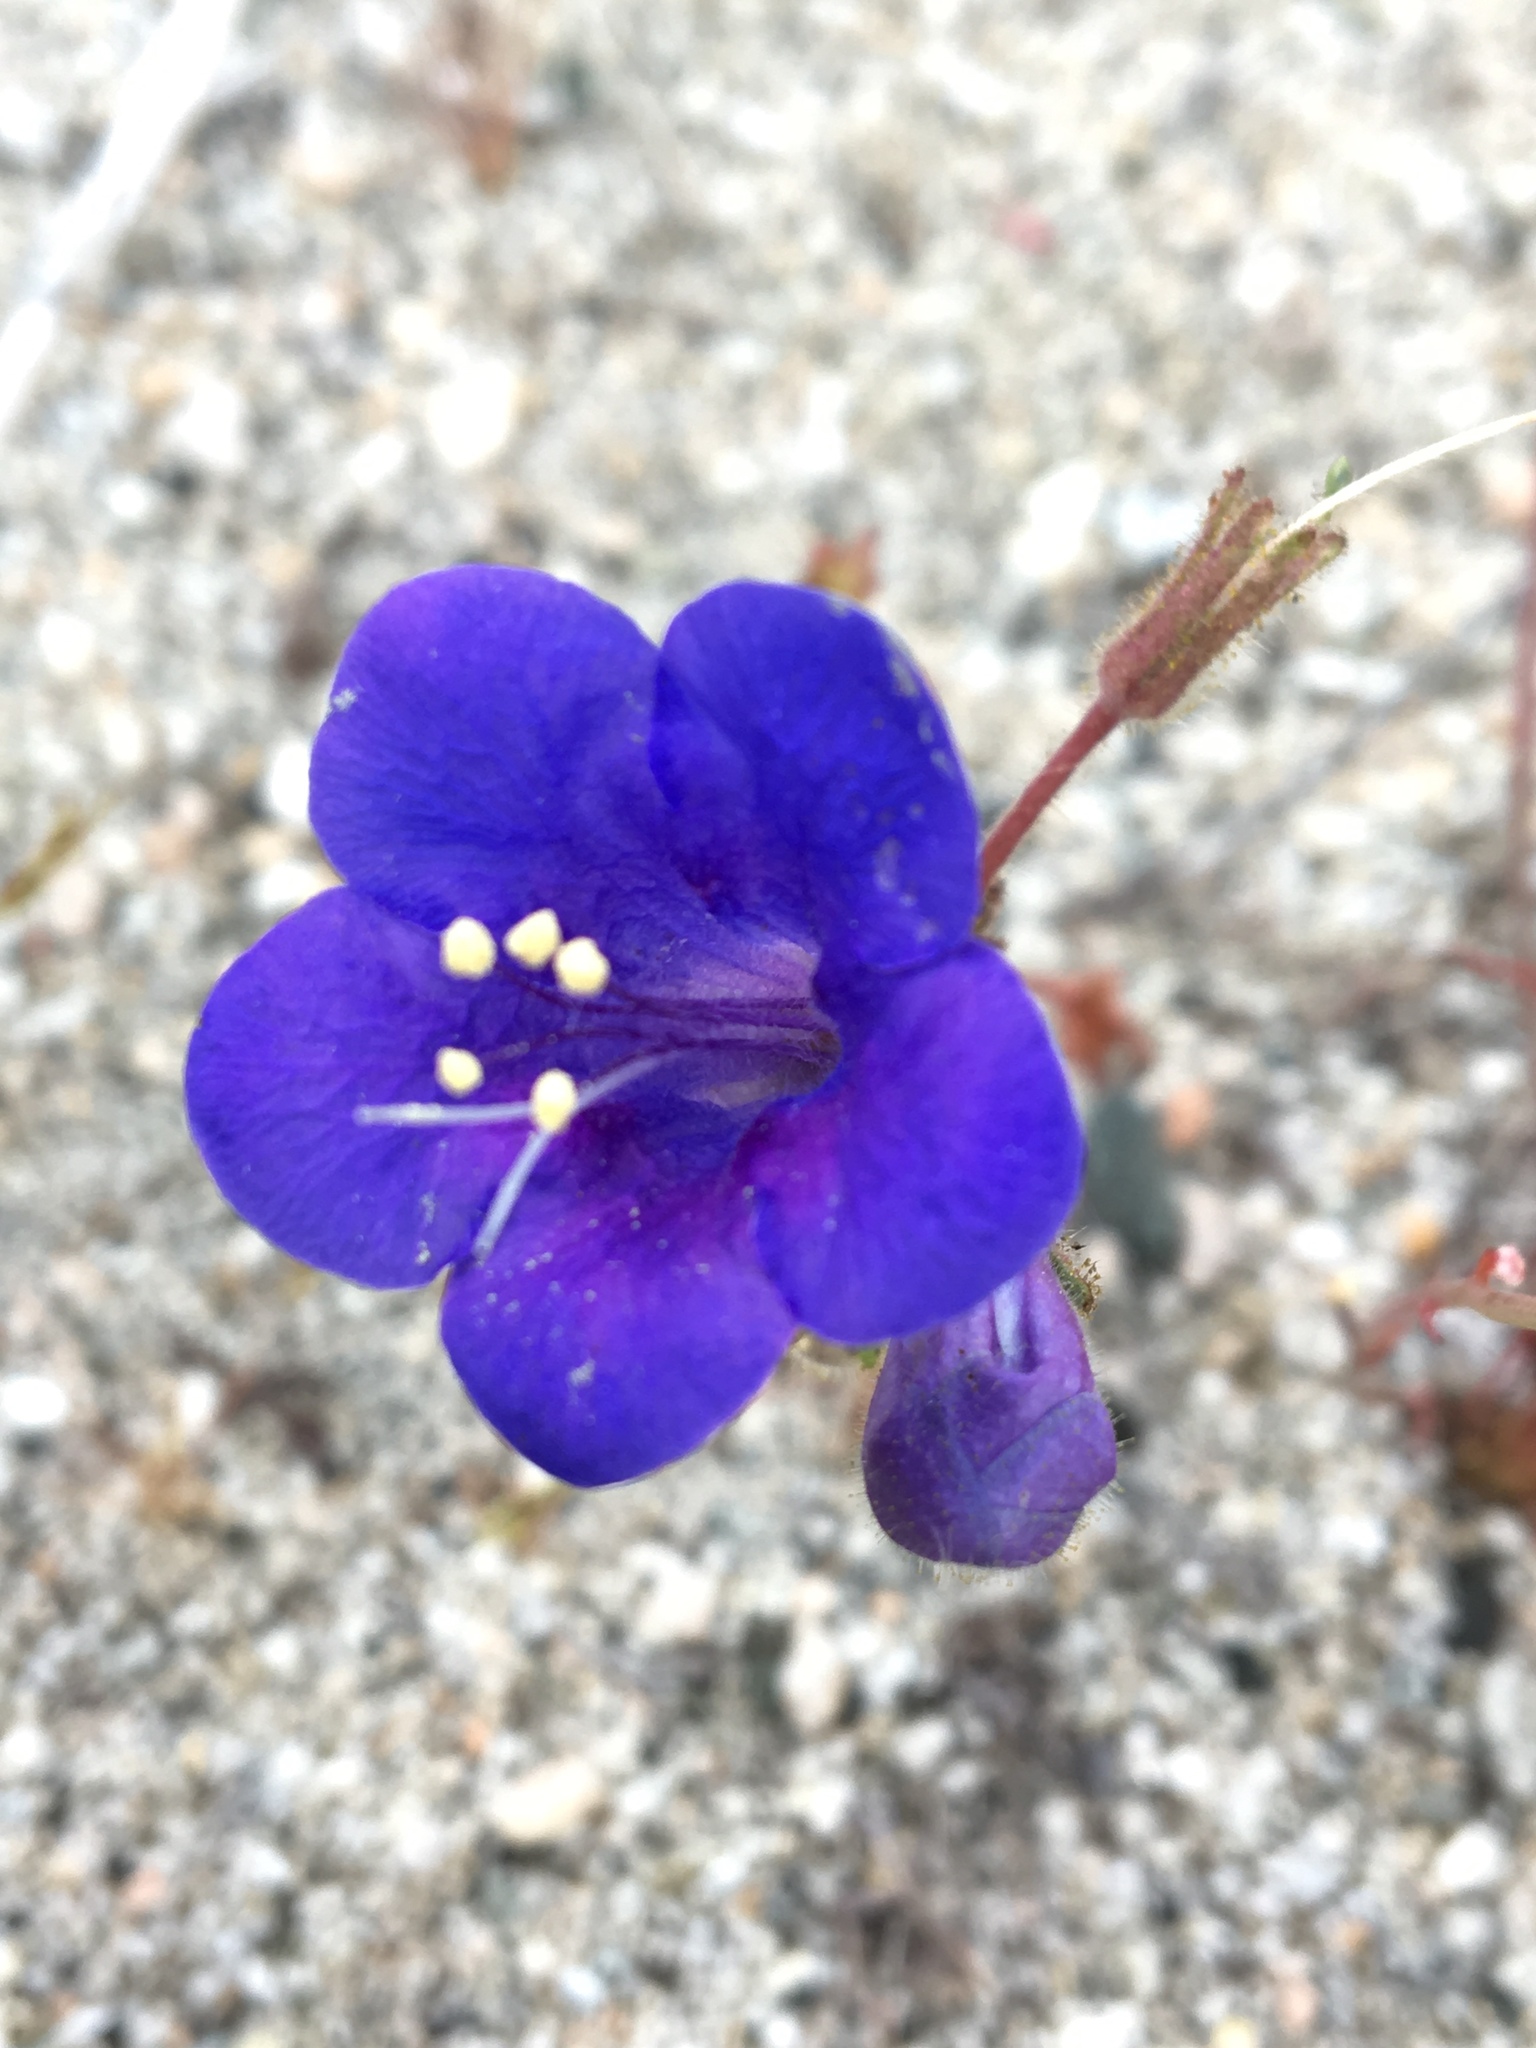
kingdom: Plantae
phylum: Tracheophyta
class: Magnoliopsida
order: Boraginales
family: Hydrophyllaceae
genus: Phacelia
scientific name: Phacelia campanularia
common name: California bluebell
